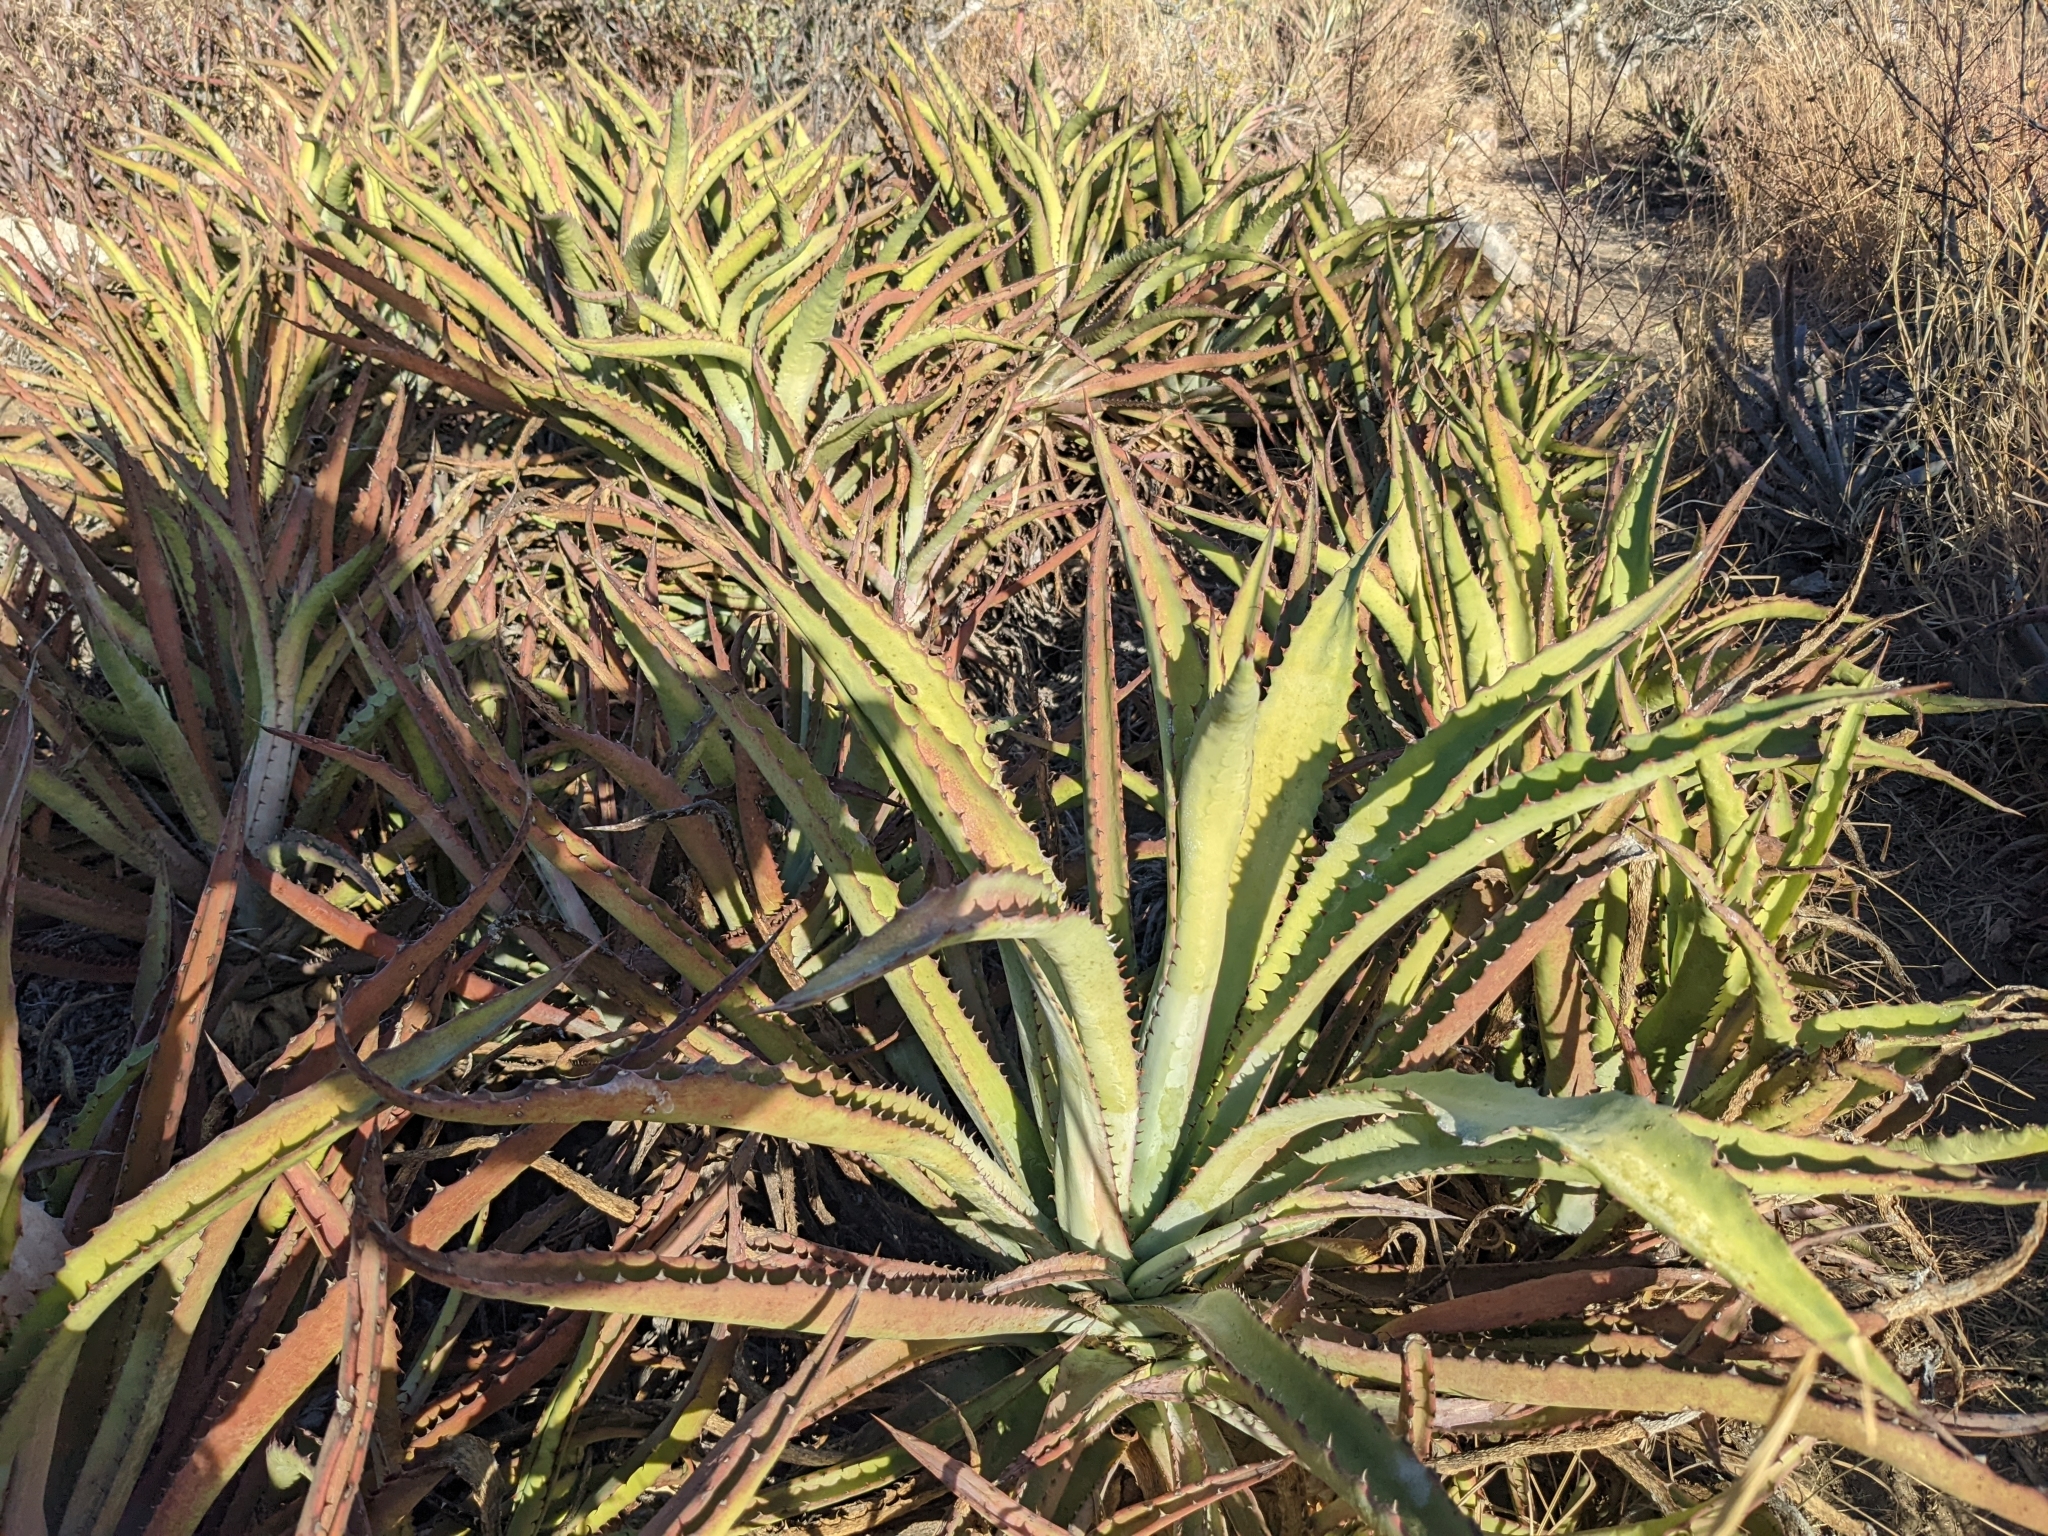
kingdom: Plantae
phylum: Tracheophyta
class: Liliopsida
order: Asparagales
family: Asparagaceae
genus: Agave
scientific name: Agave aurea
